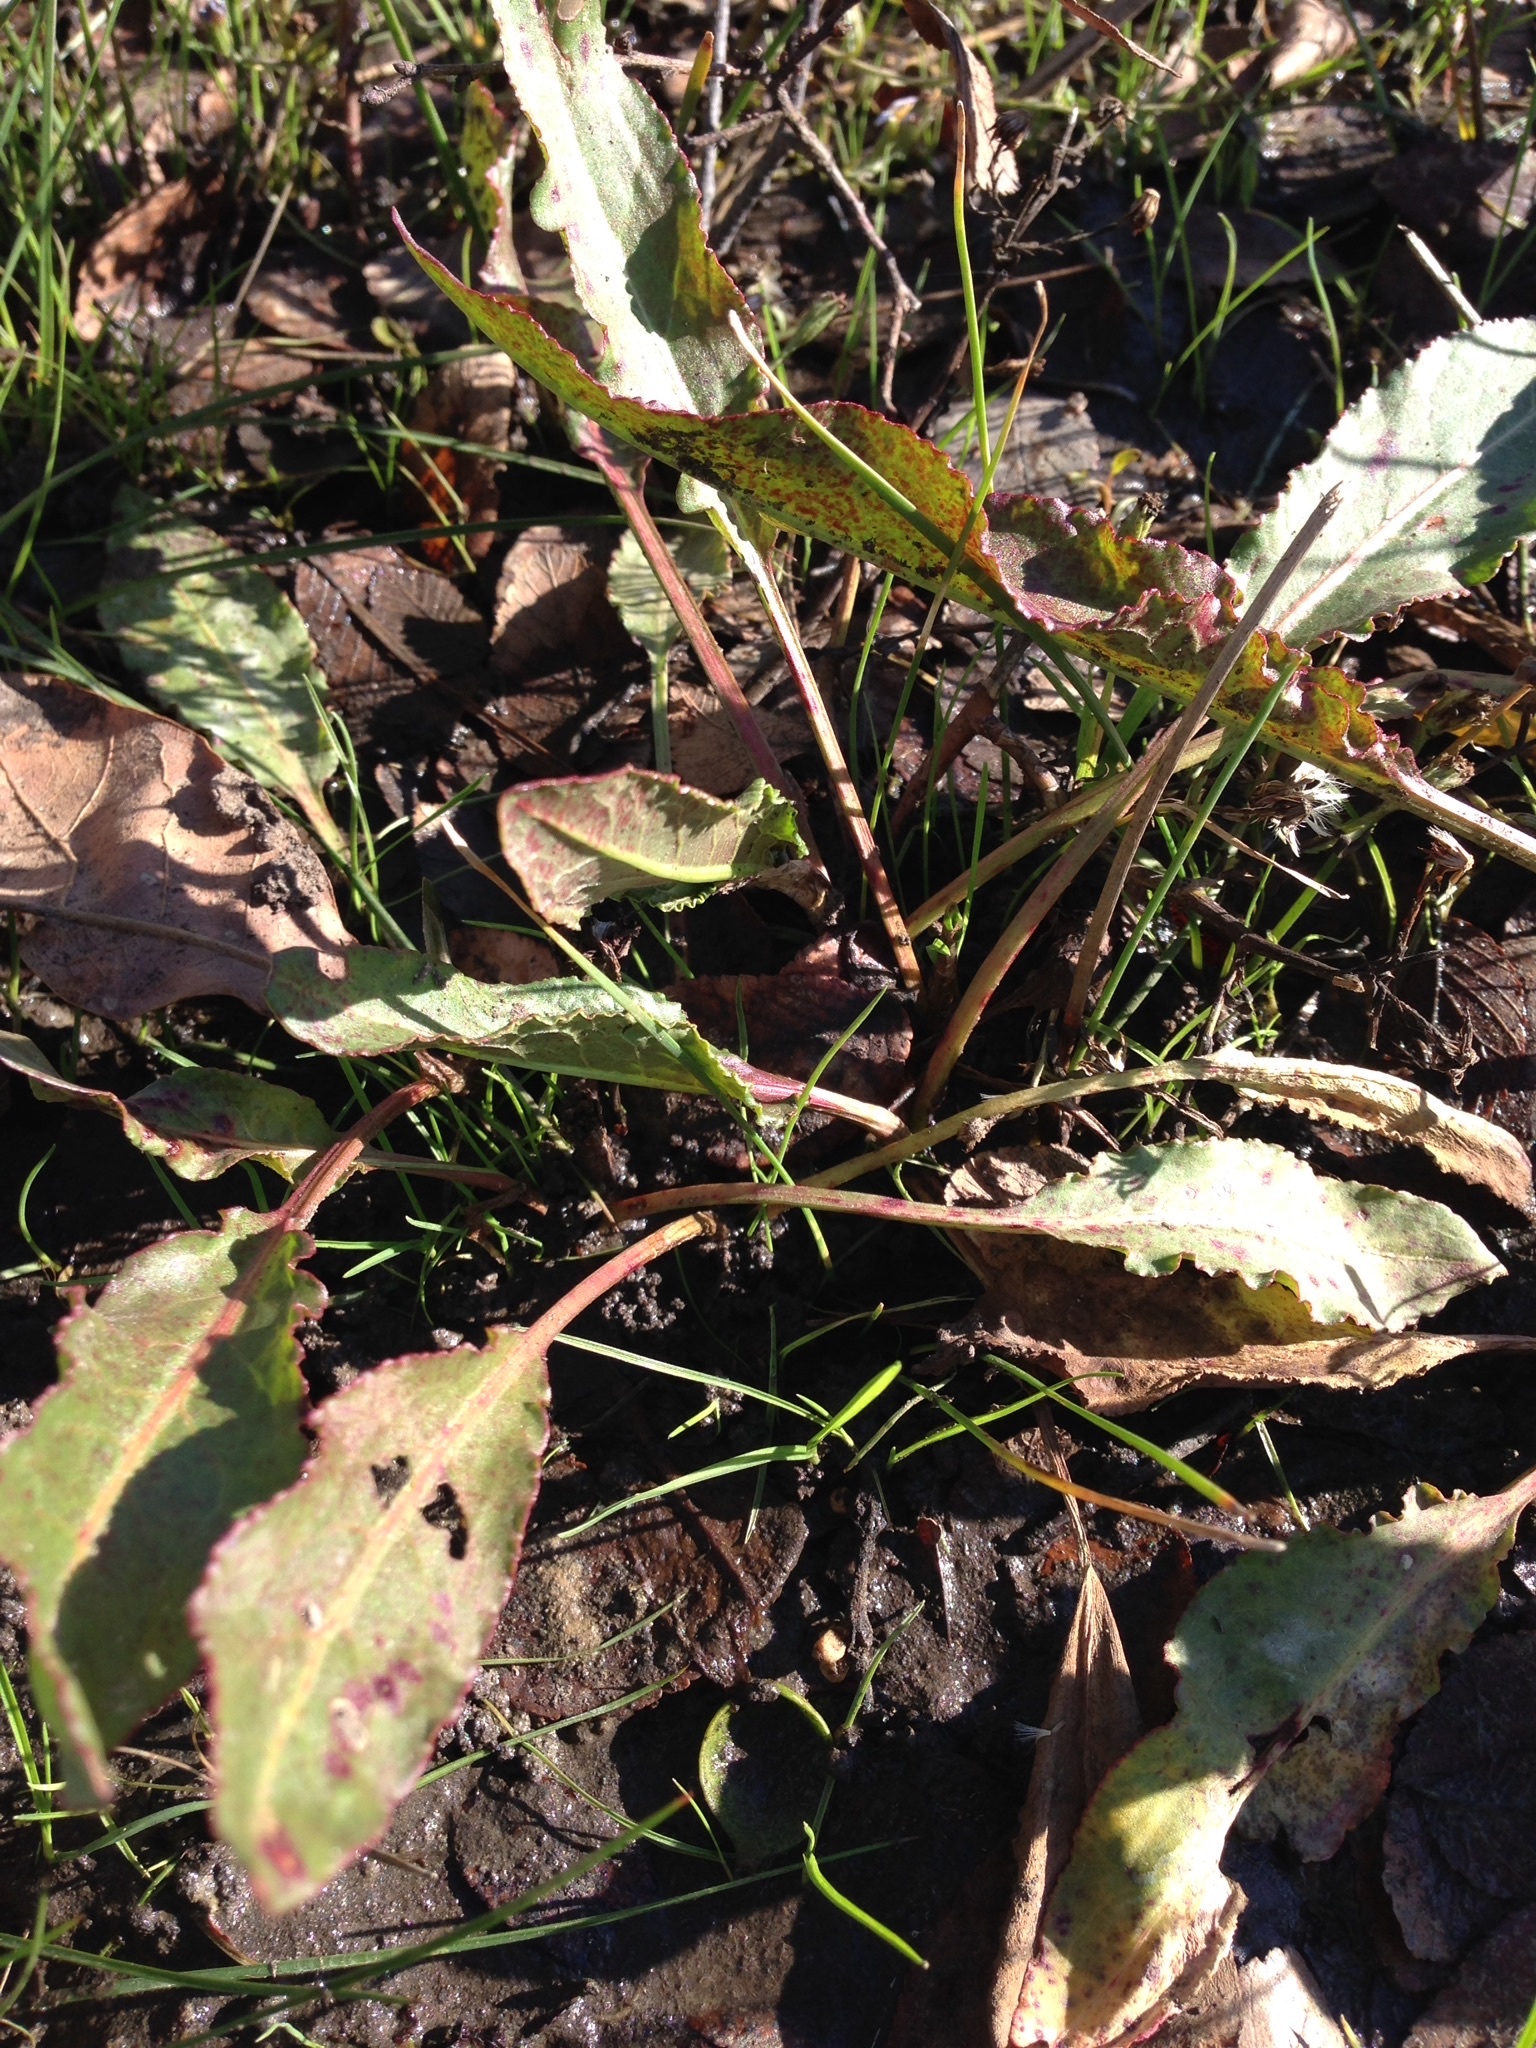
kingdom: Plantae
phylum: Tracheophyta
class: Magnoliopsida
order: Caryophyllales
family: Polygonaceae
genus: Rumex
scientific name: Rumex crispus
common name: Curled dock
